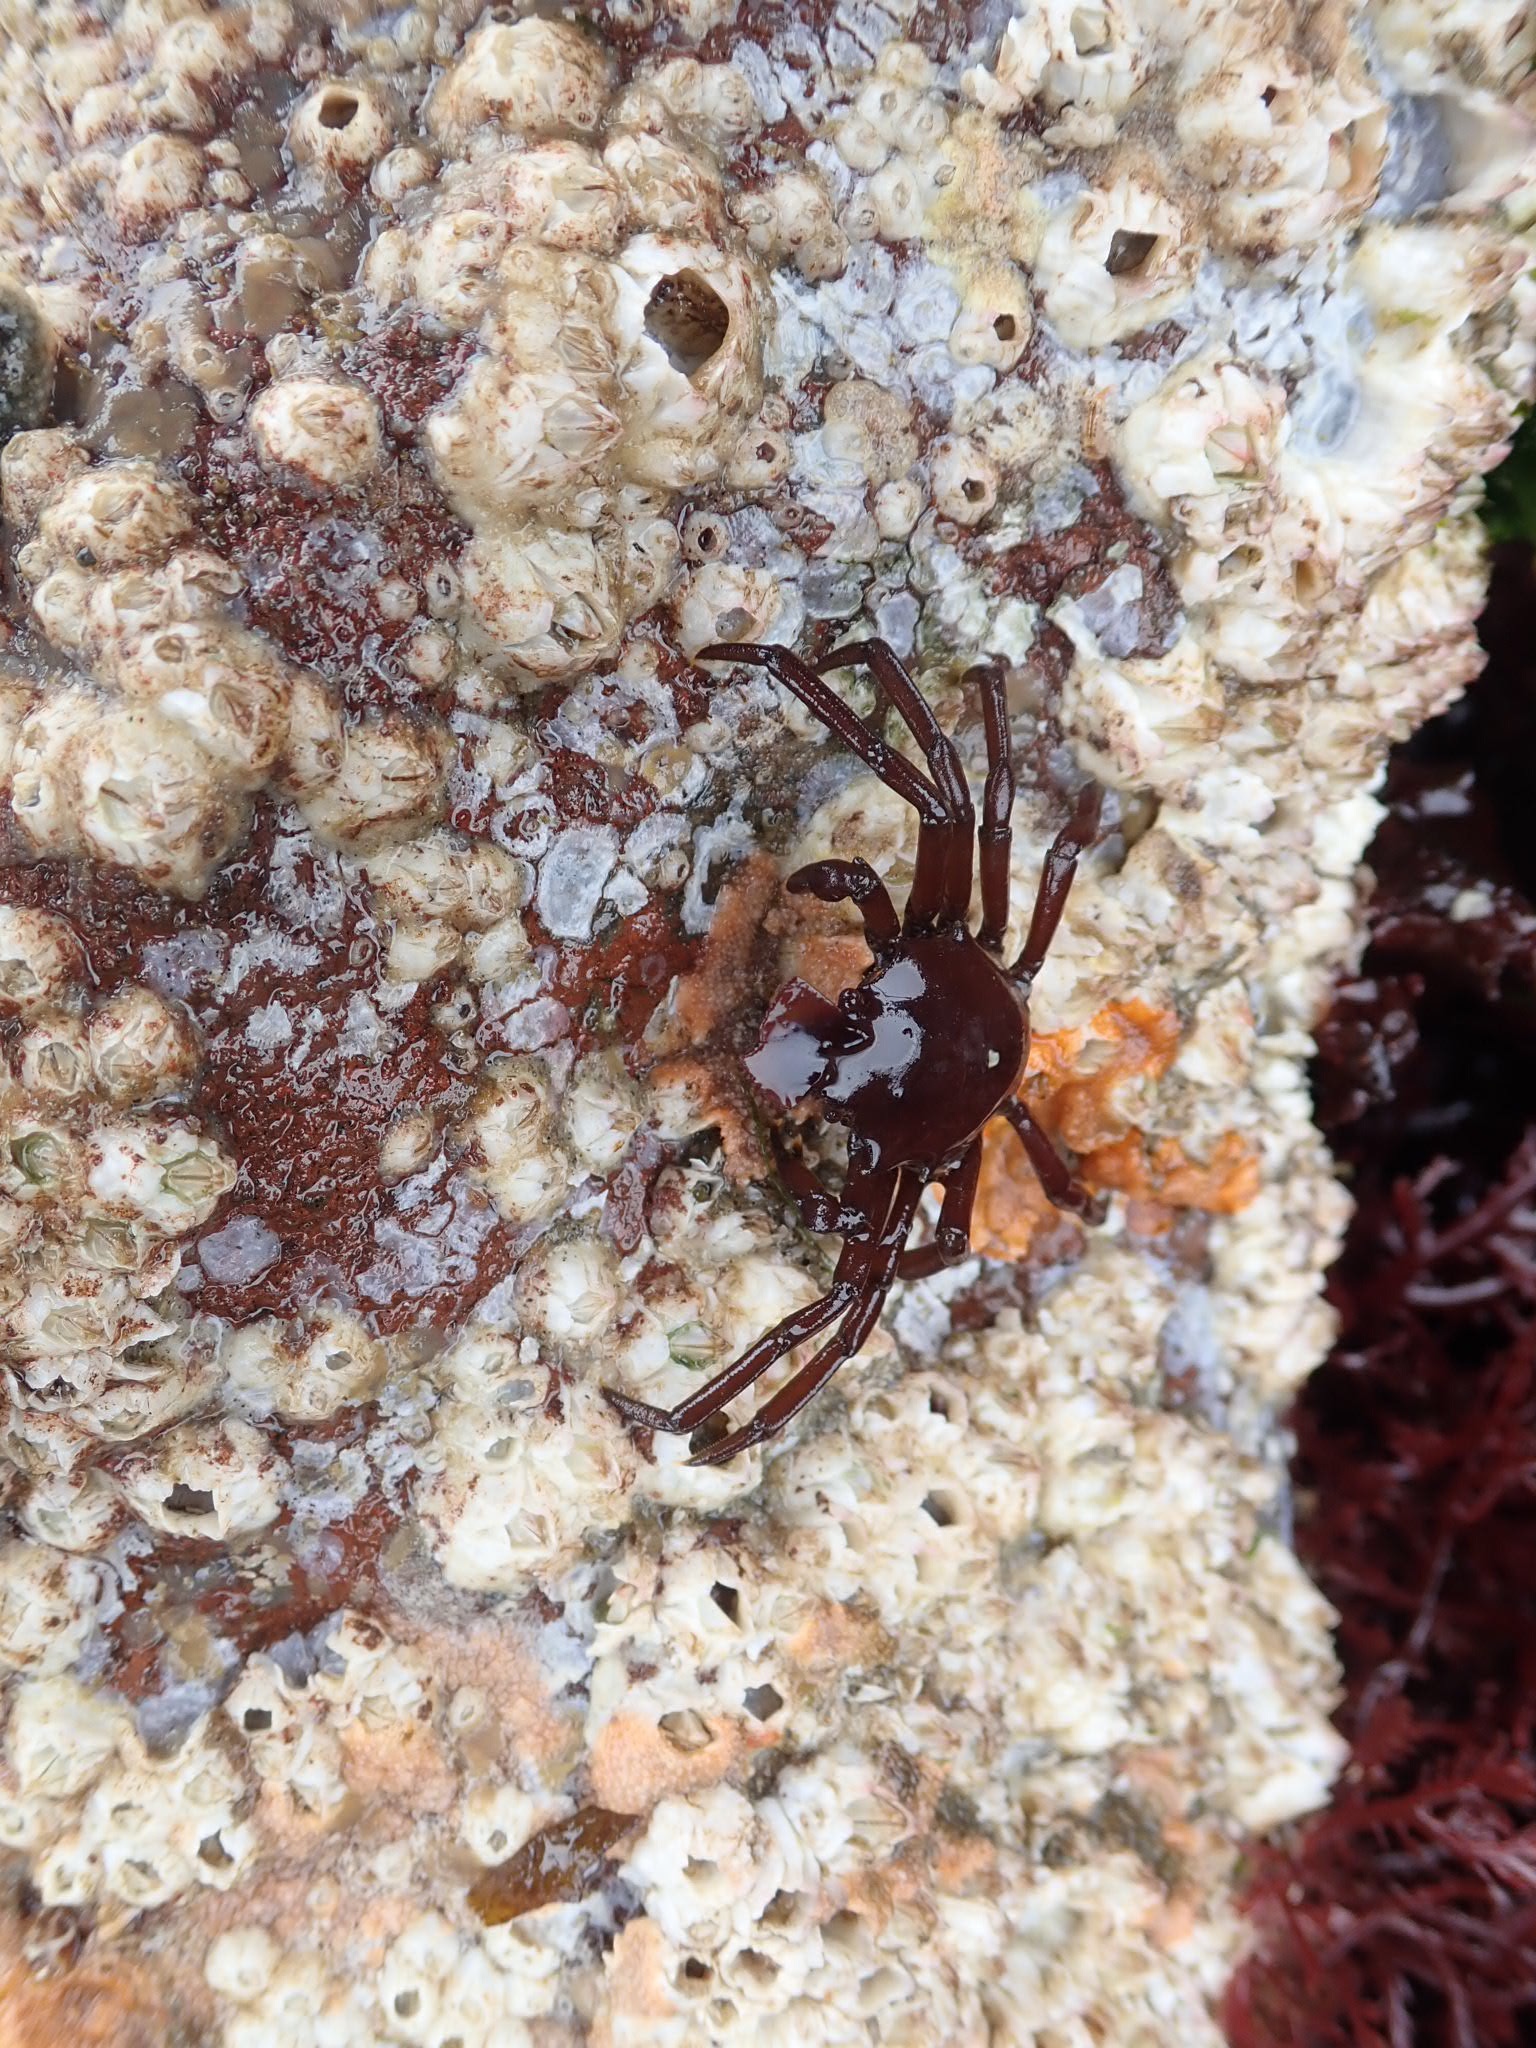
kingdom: Animalia
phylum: Arthropoda
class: Malacostraca
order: Decapoda
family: Epialtidae
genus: Pugettia
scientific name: Pugettia producta
